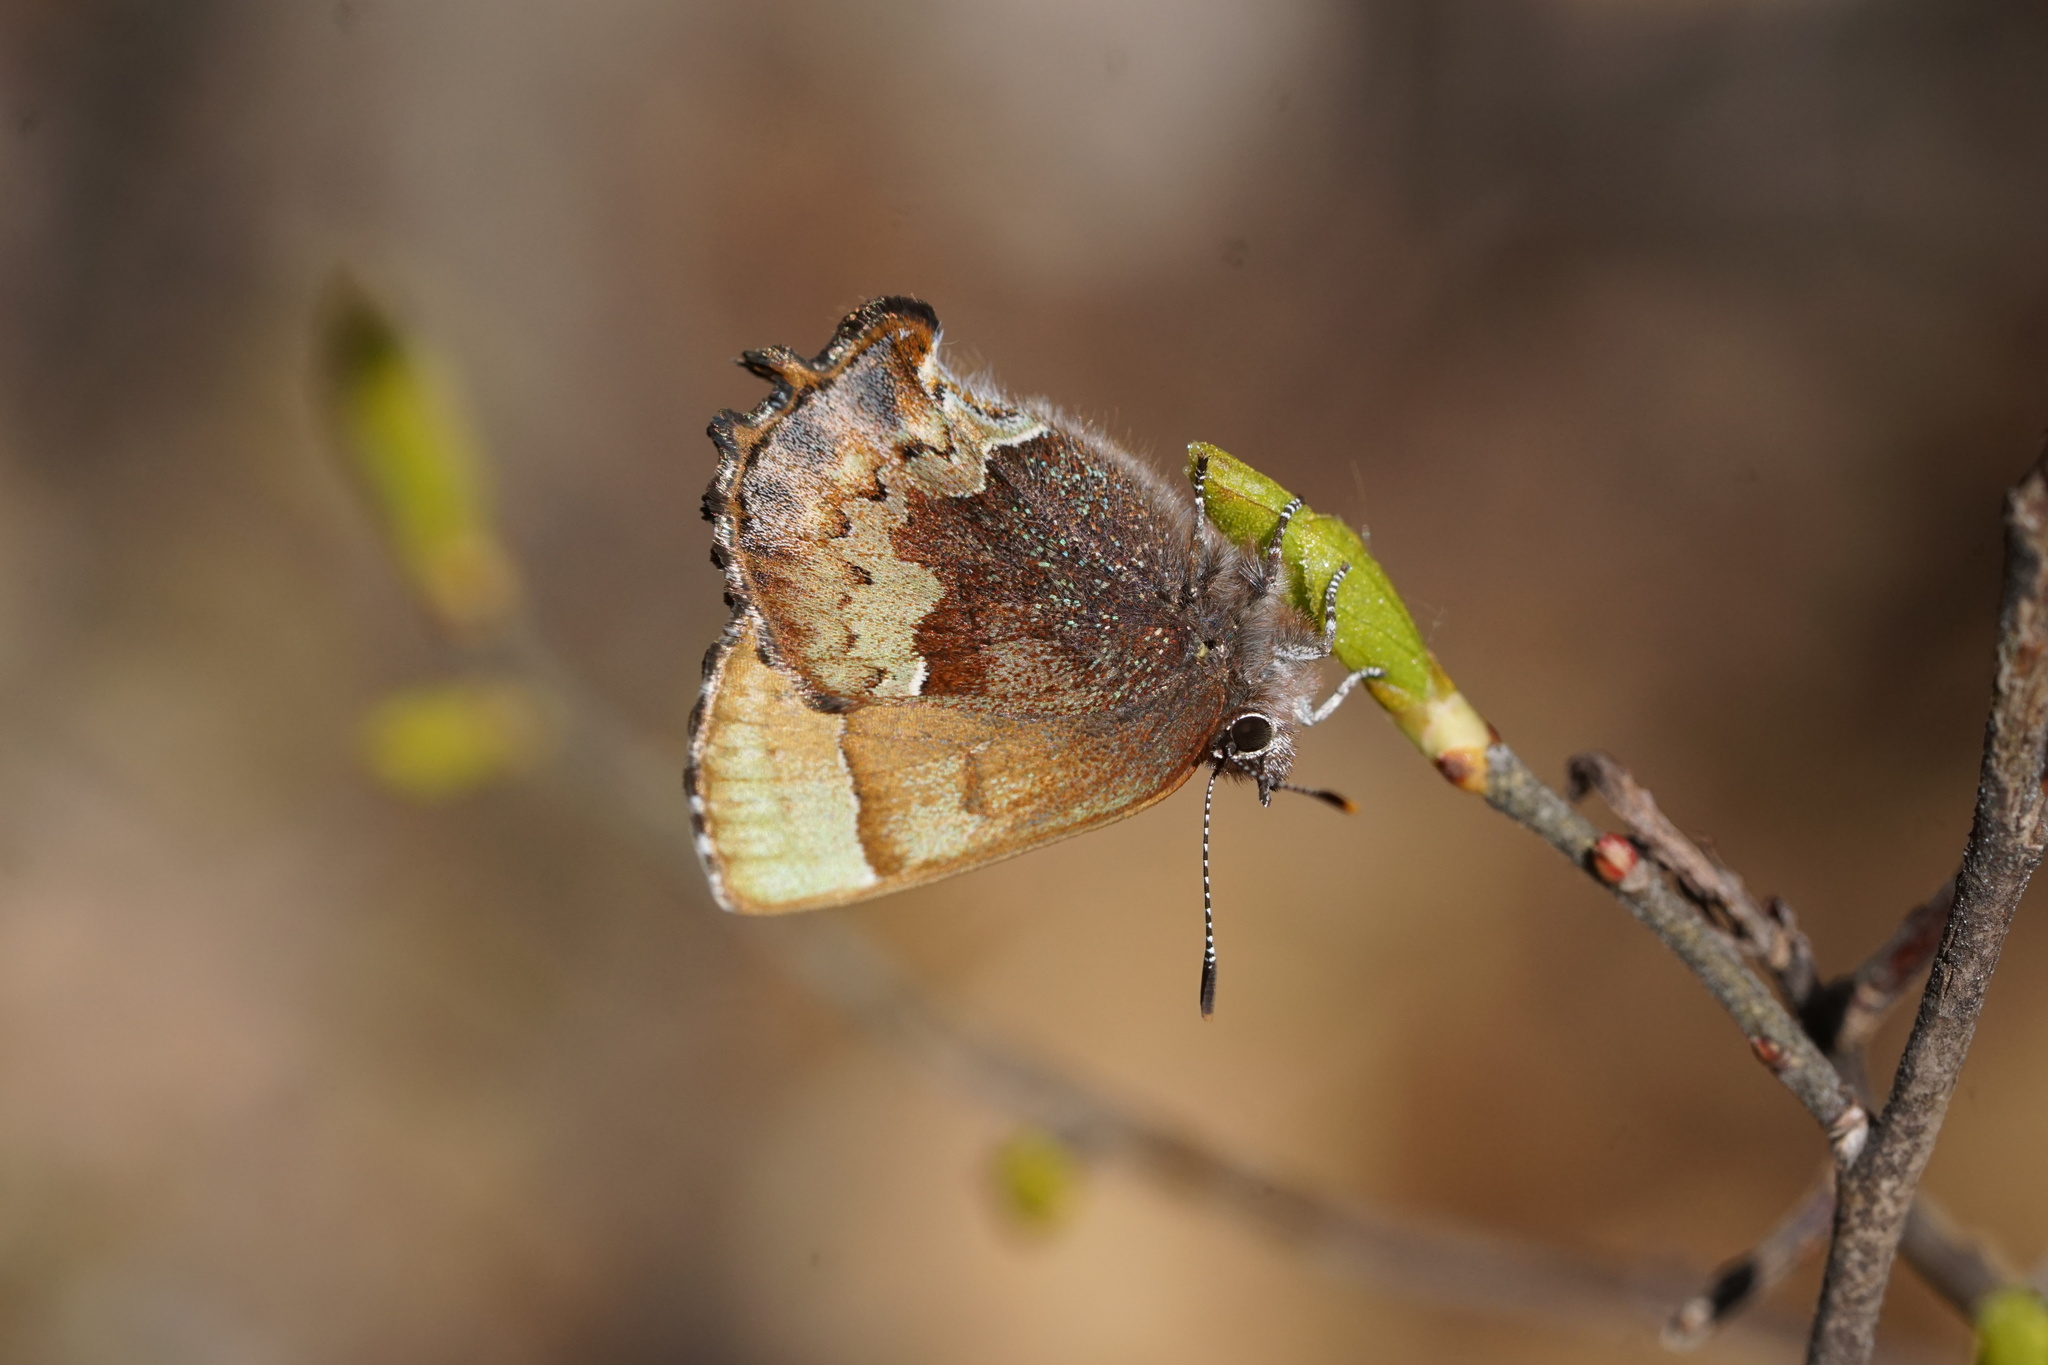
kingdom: Animalia
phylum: Arthropoda
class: Insecta
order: Lepidoptera
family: Lycaenidae
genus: Incisalia
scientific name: Incisalia henrici
